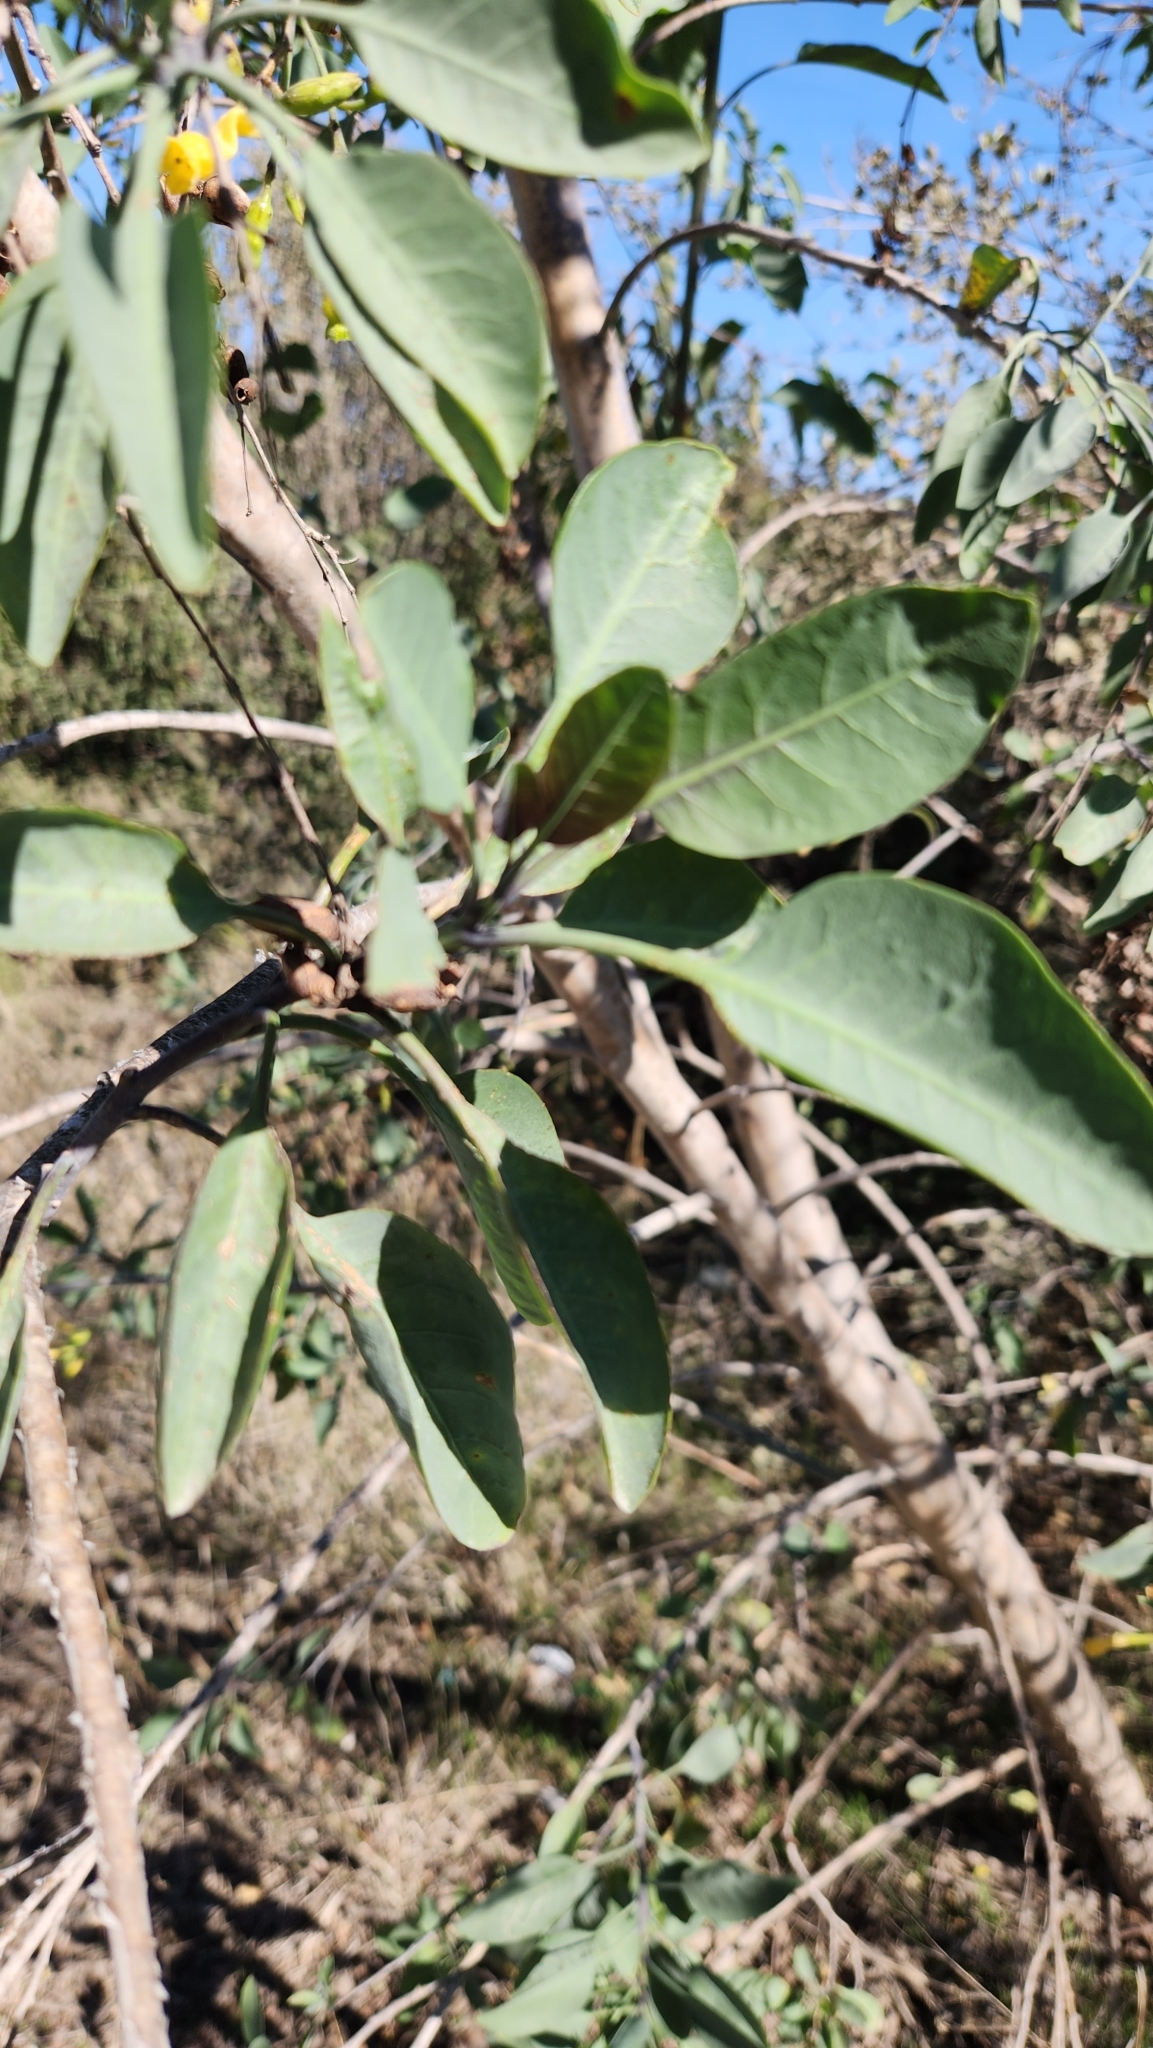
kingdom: Plantae
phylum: Tracheophyta
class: Magnoliopsida
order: Solanales
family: Solanaceae
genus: Nicotiana
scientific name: Nicotiana glauca
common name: Tree tobacco
